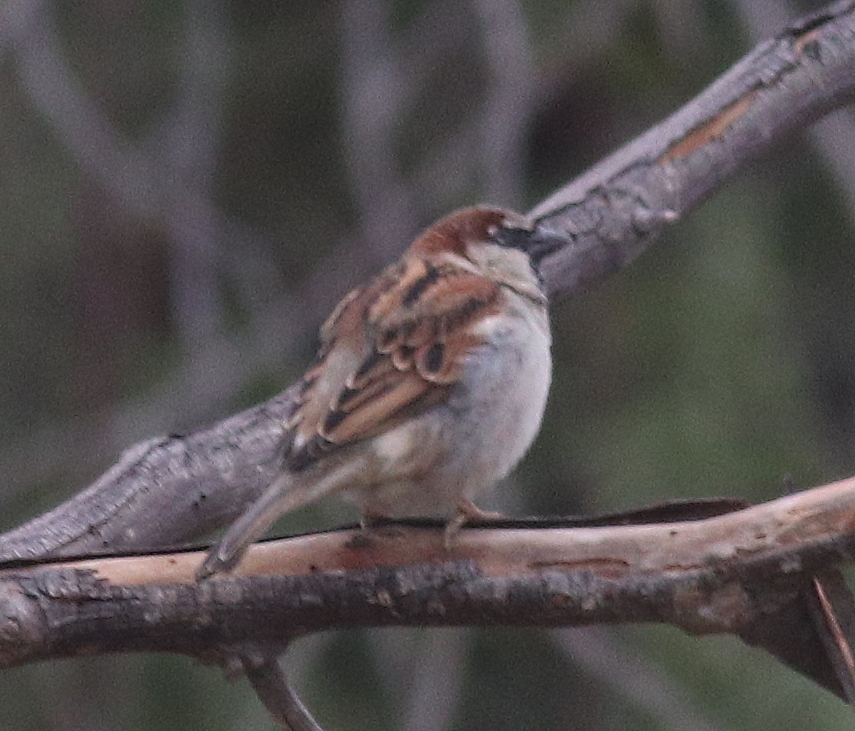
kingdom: Animalia
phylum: Chordata
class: Aves
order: Passeriformes
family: Passeridae
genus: Passer
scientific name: Passer domesticus
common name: House sparrow
